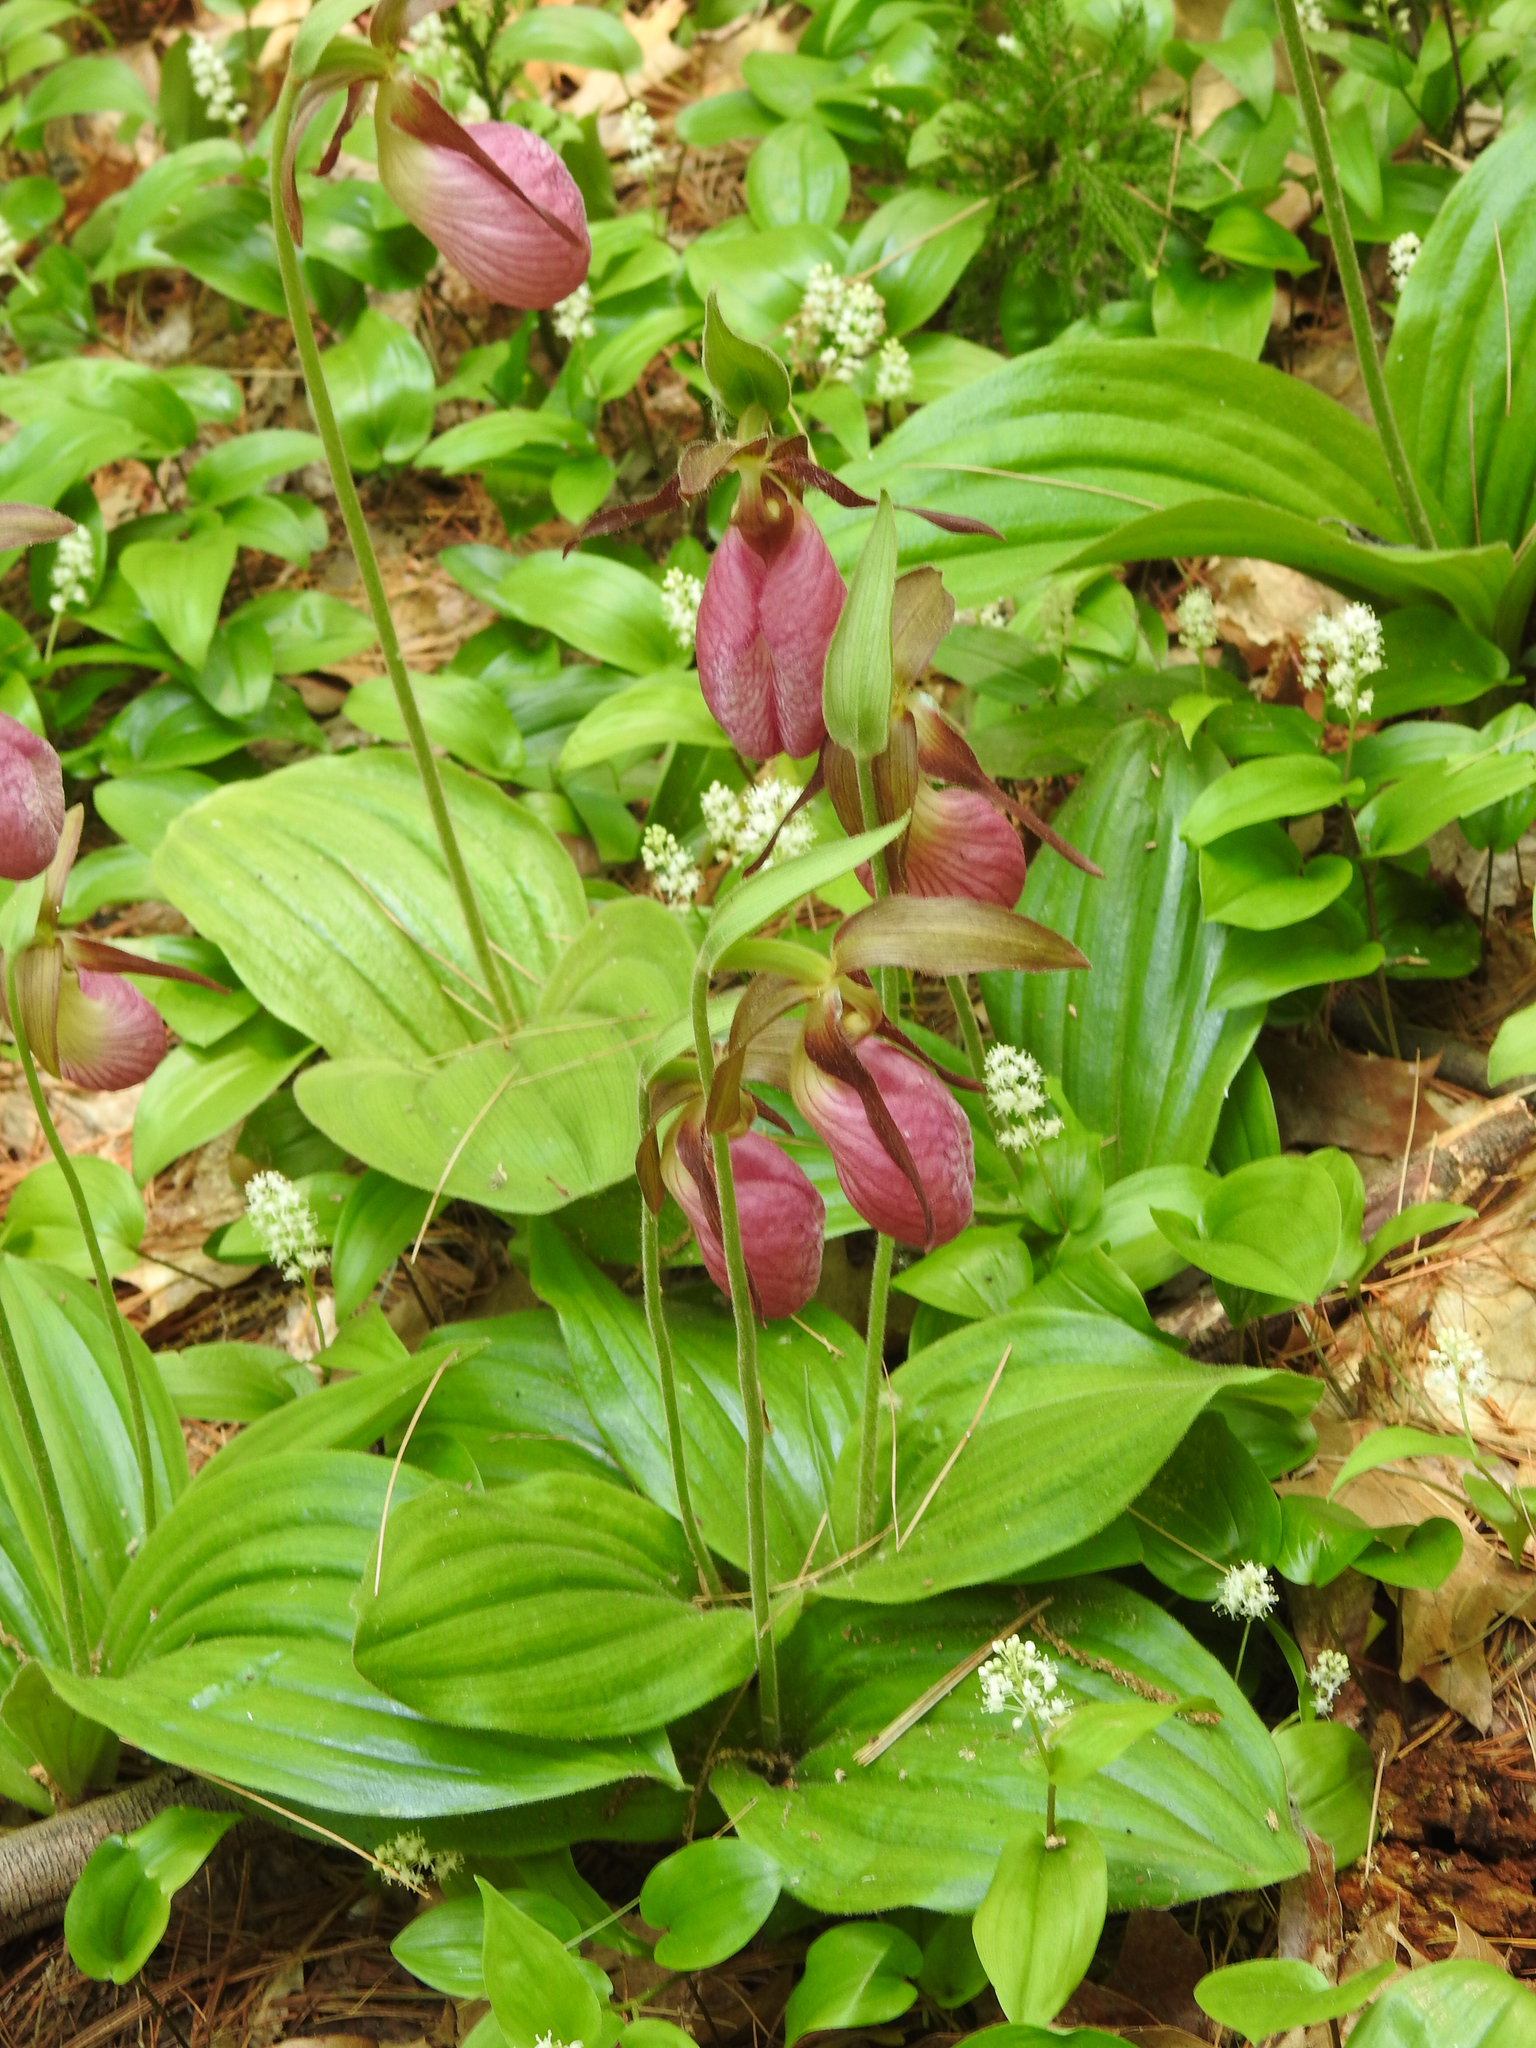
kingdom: Plantae
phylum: Tracheophyta
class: Liliopsida
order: Asparagales
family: Orchidaceae
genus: Cypripedium
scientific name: Cypripedium acaule
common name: Pink lady's-slipper
